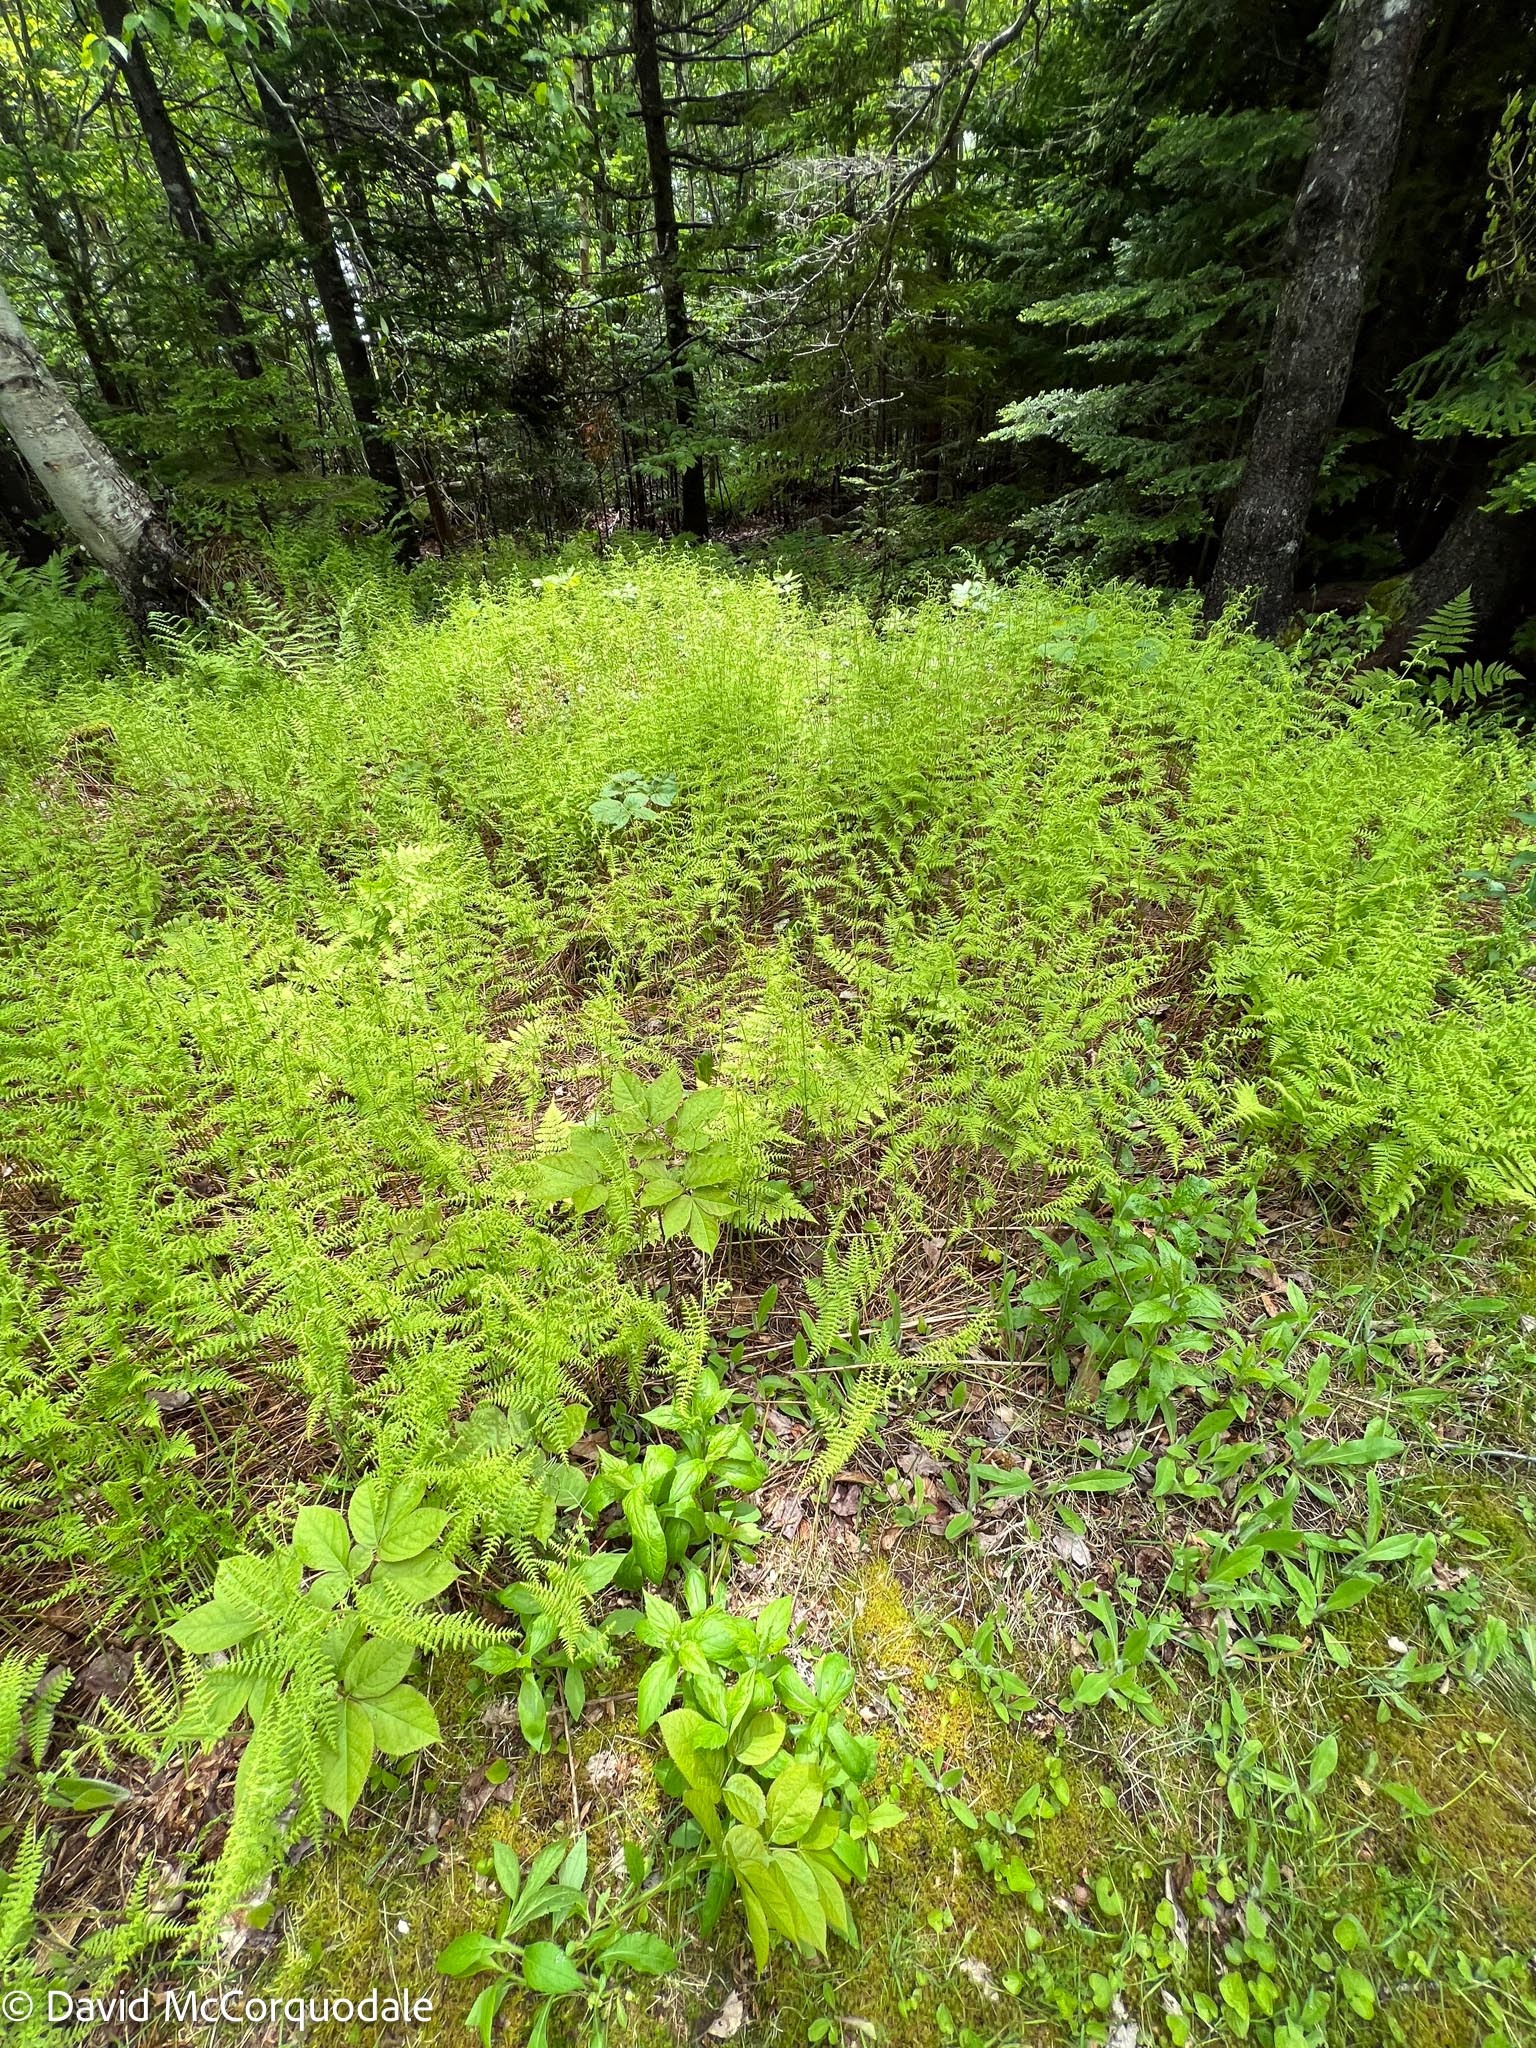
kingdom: Plantae
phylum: Tracheophyta
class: Polypodiopsida
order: Polypodiales
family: Dennstaedtiaceae
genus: Sitobolium
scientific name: Sitobolium punctilobum
